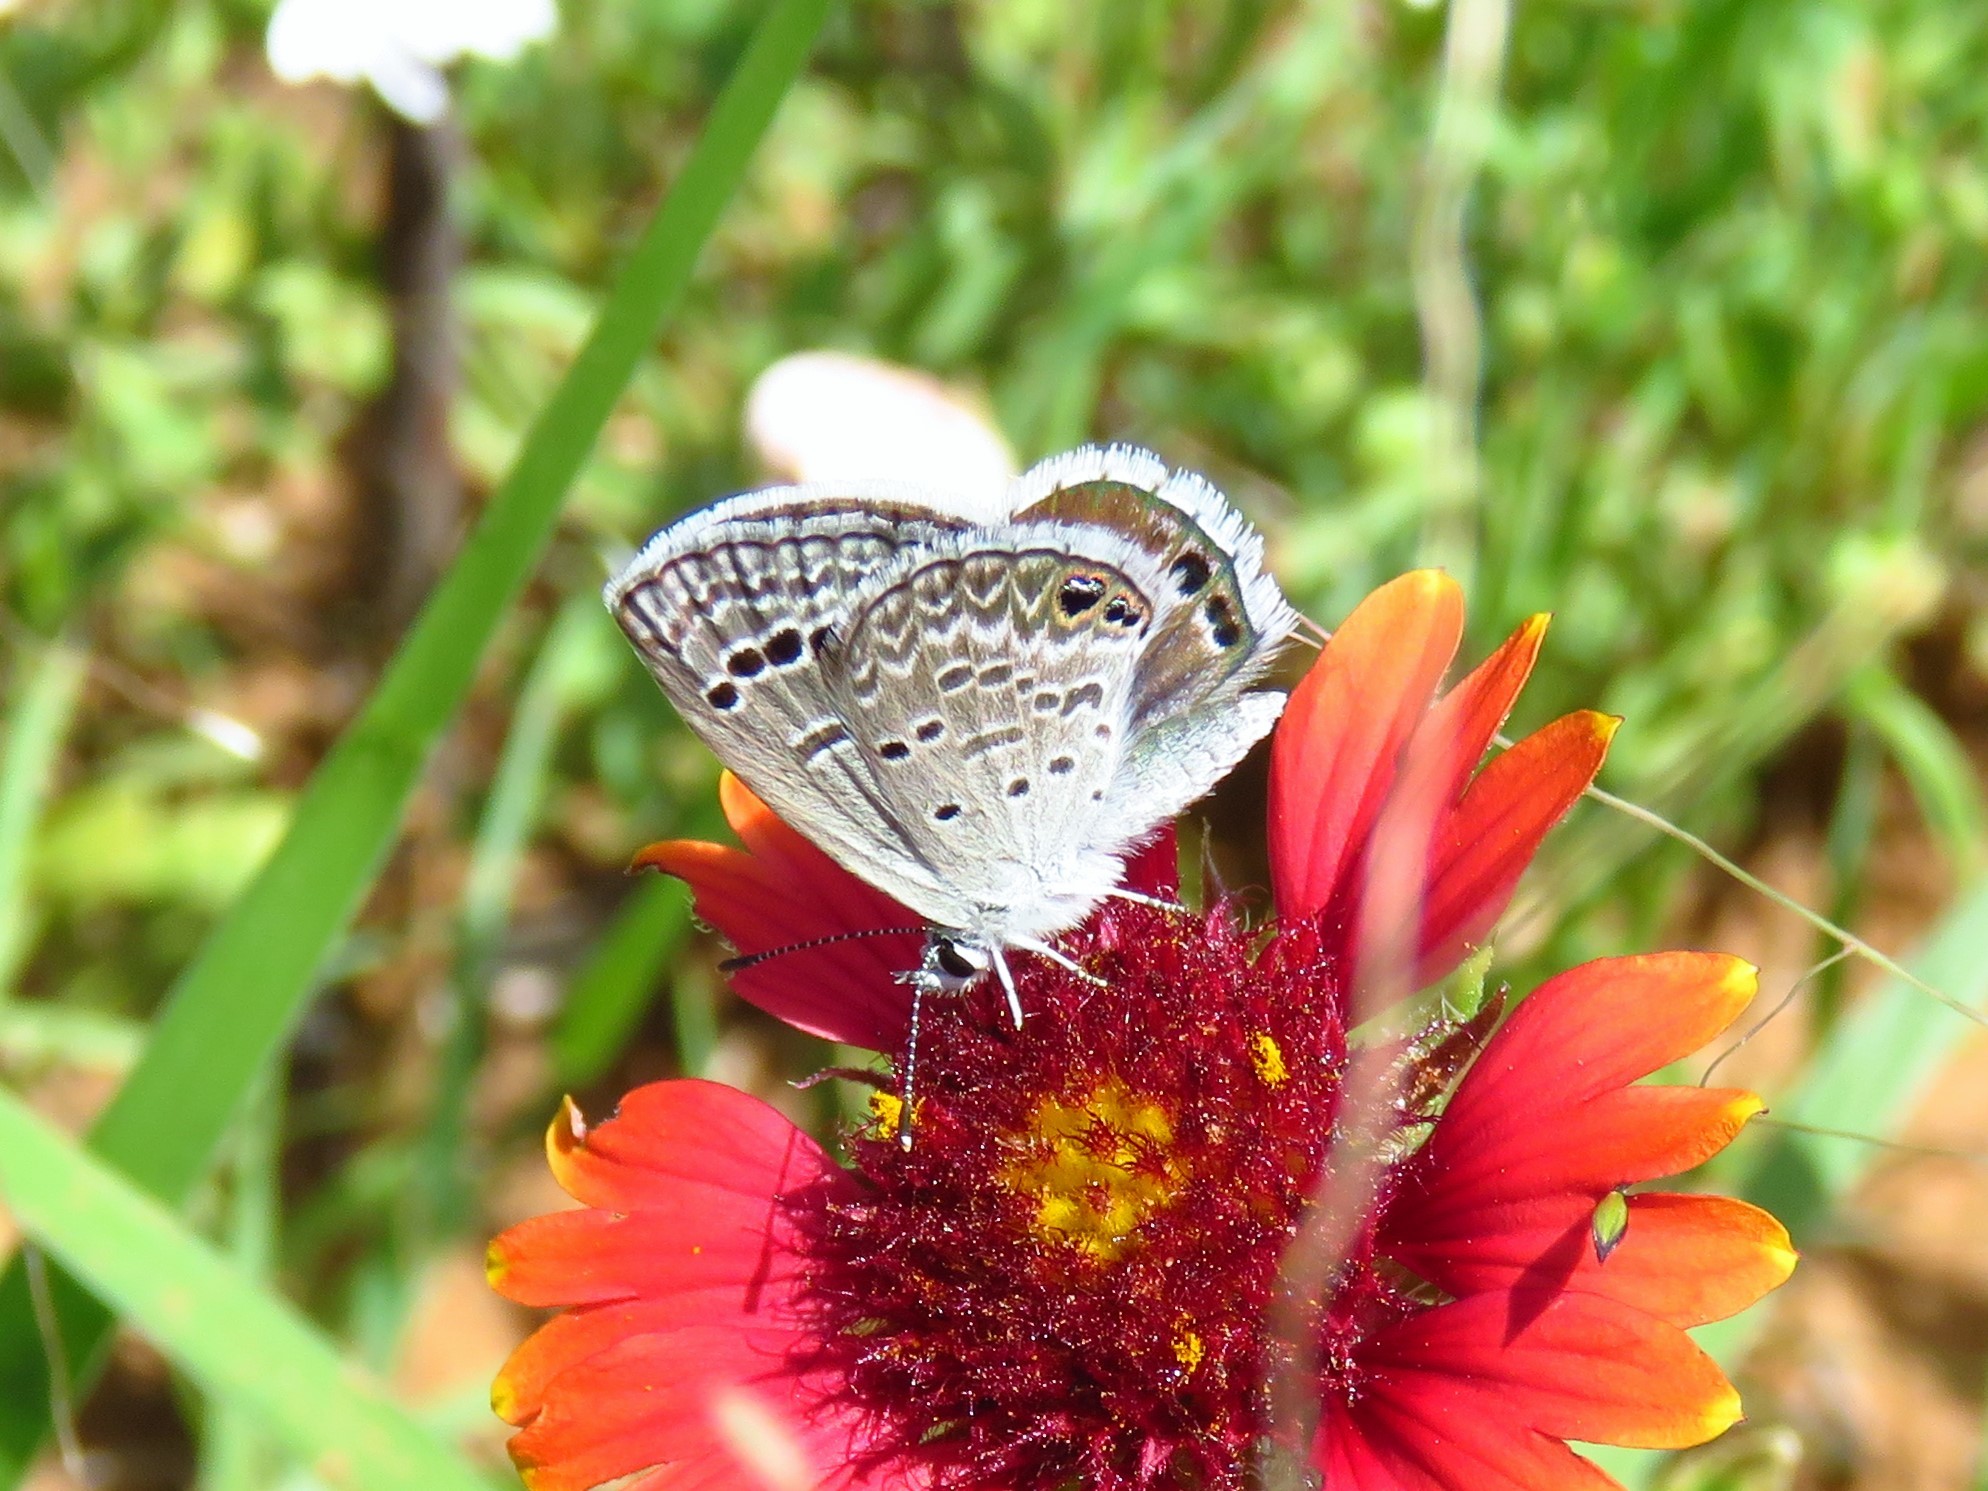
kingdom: Animalia
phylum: Arthropoda
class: Insecta
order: Lepidoptera
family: Lycaenidae
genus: Echinargus
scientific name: Echinargus isola
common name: Reakirt's blue
